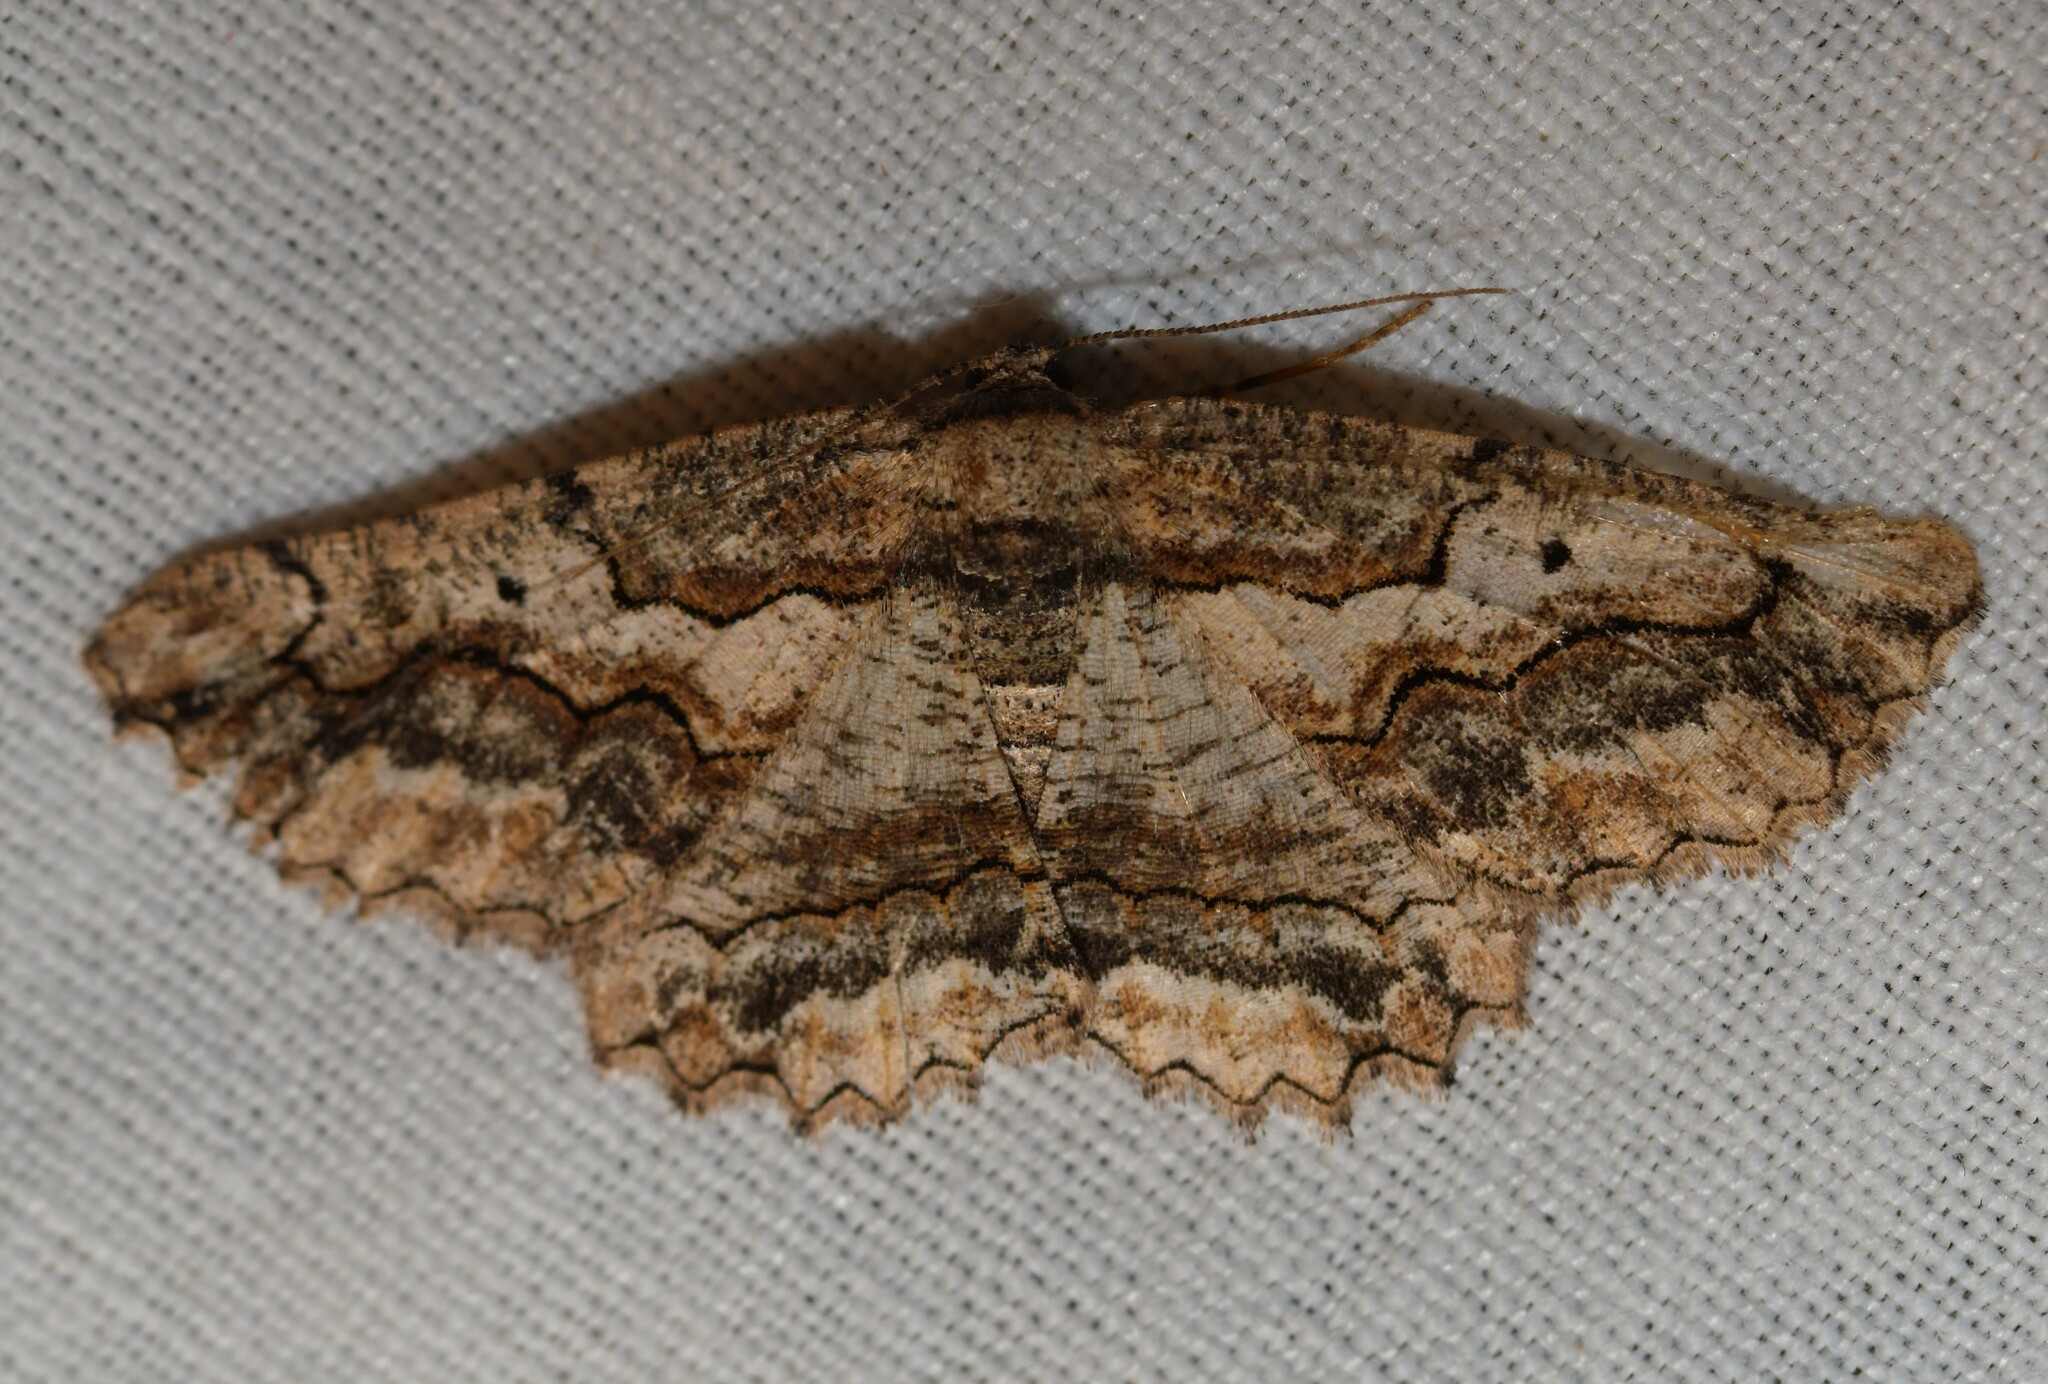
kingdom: Animalia
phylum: Arthropoda
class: Insecta
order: Lepidoptera
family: Geometridae
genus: Menophra
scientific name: Menophra japygiaria
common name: Brassy waved umber
